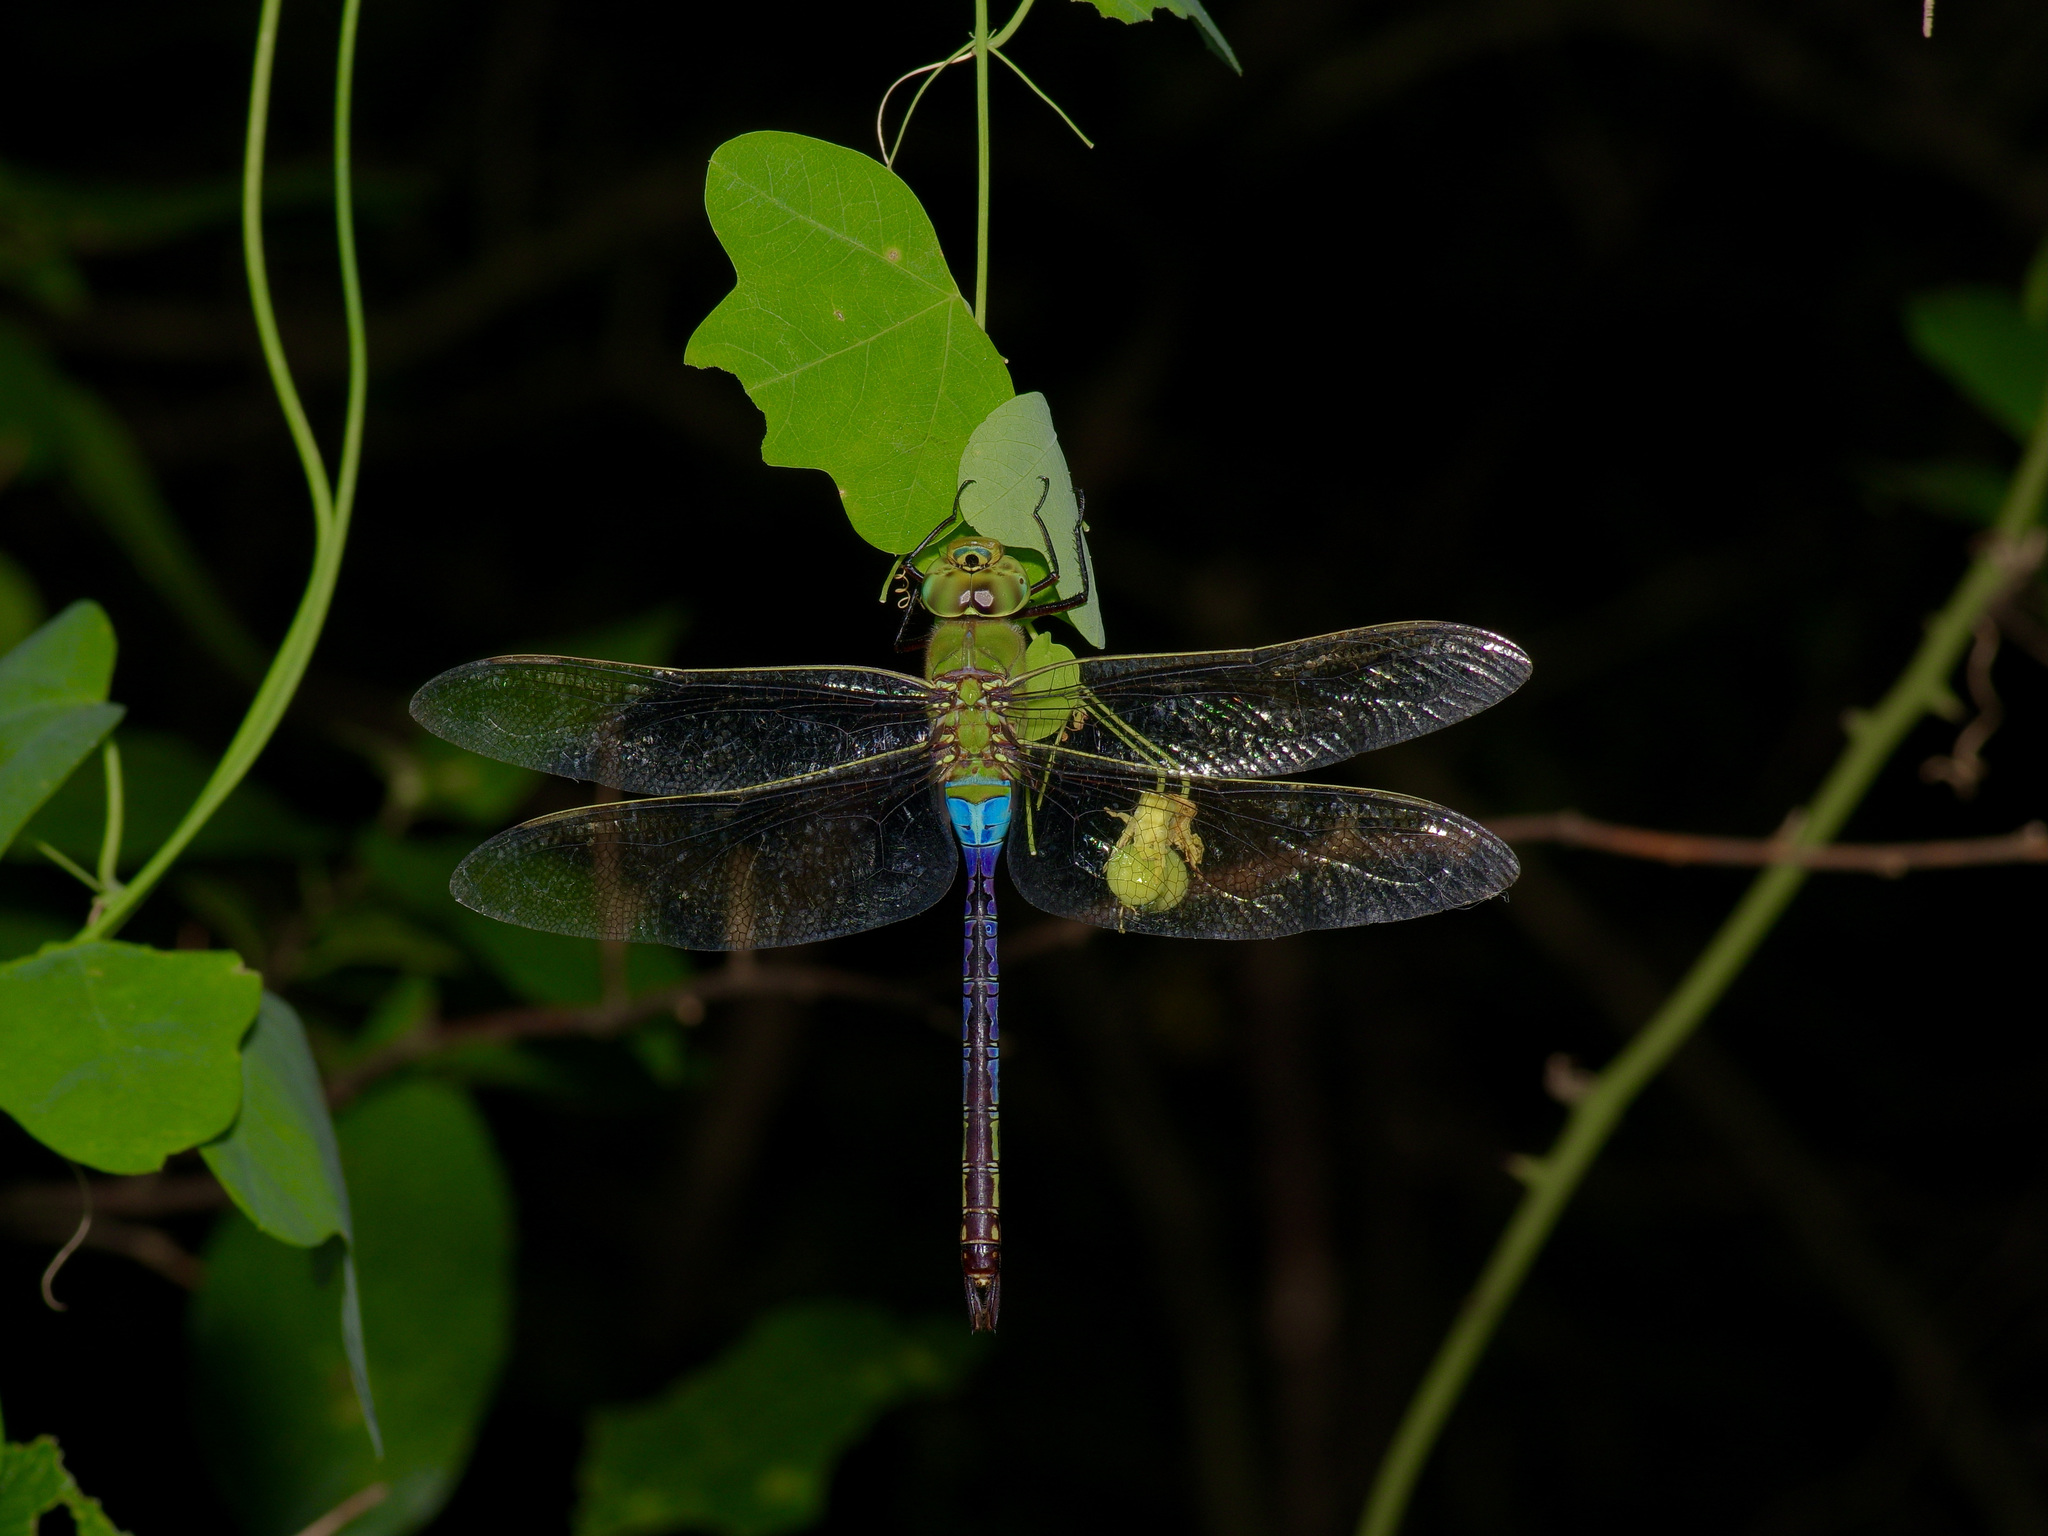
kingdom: Animalia
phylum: Arthropoda
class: Insecta
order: Odonata
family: Aeshnidae
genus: Anax
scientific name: Anax junius
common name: Common green darner
